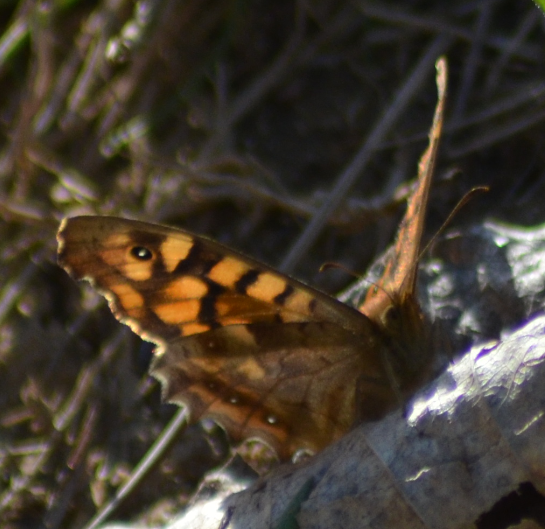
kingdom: Animalia
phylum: Arthropoda
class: Insecta
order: Lepidoptera
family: Nymphalidae
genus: Pararge
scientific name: Pararge aegeria
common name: Speckled wood
